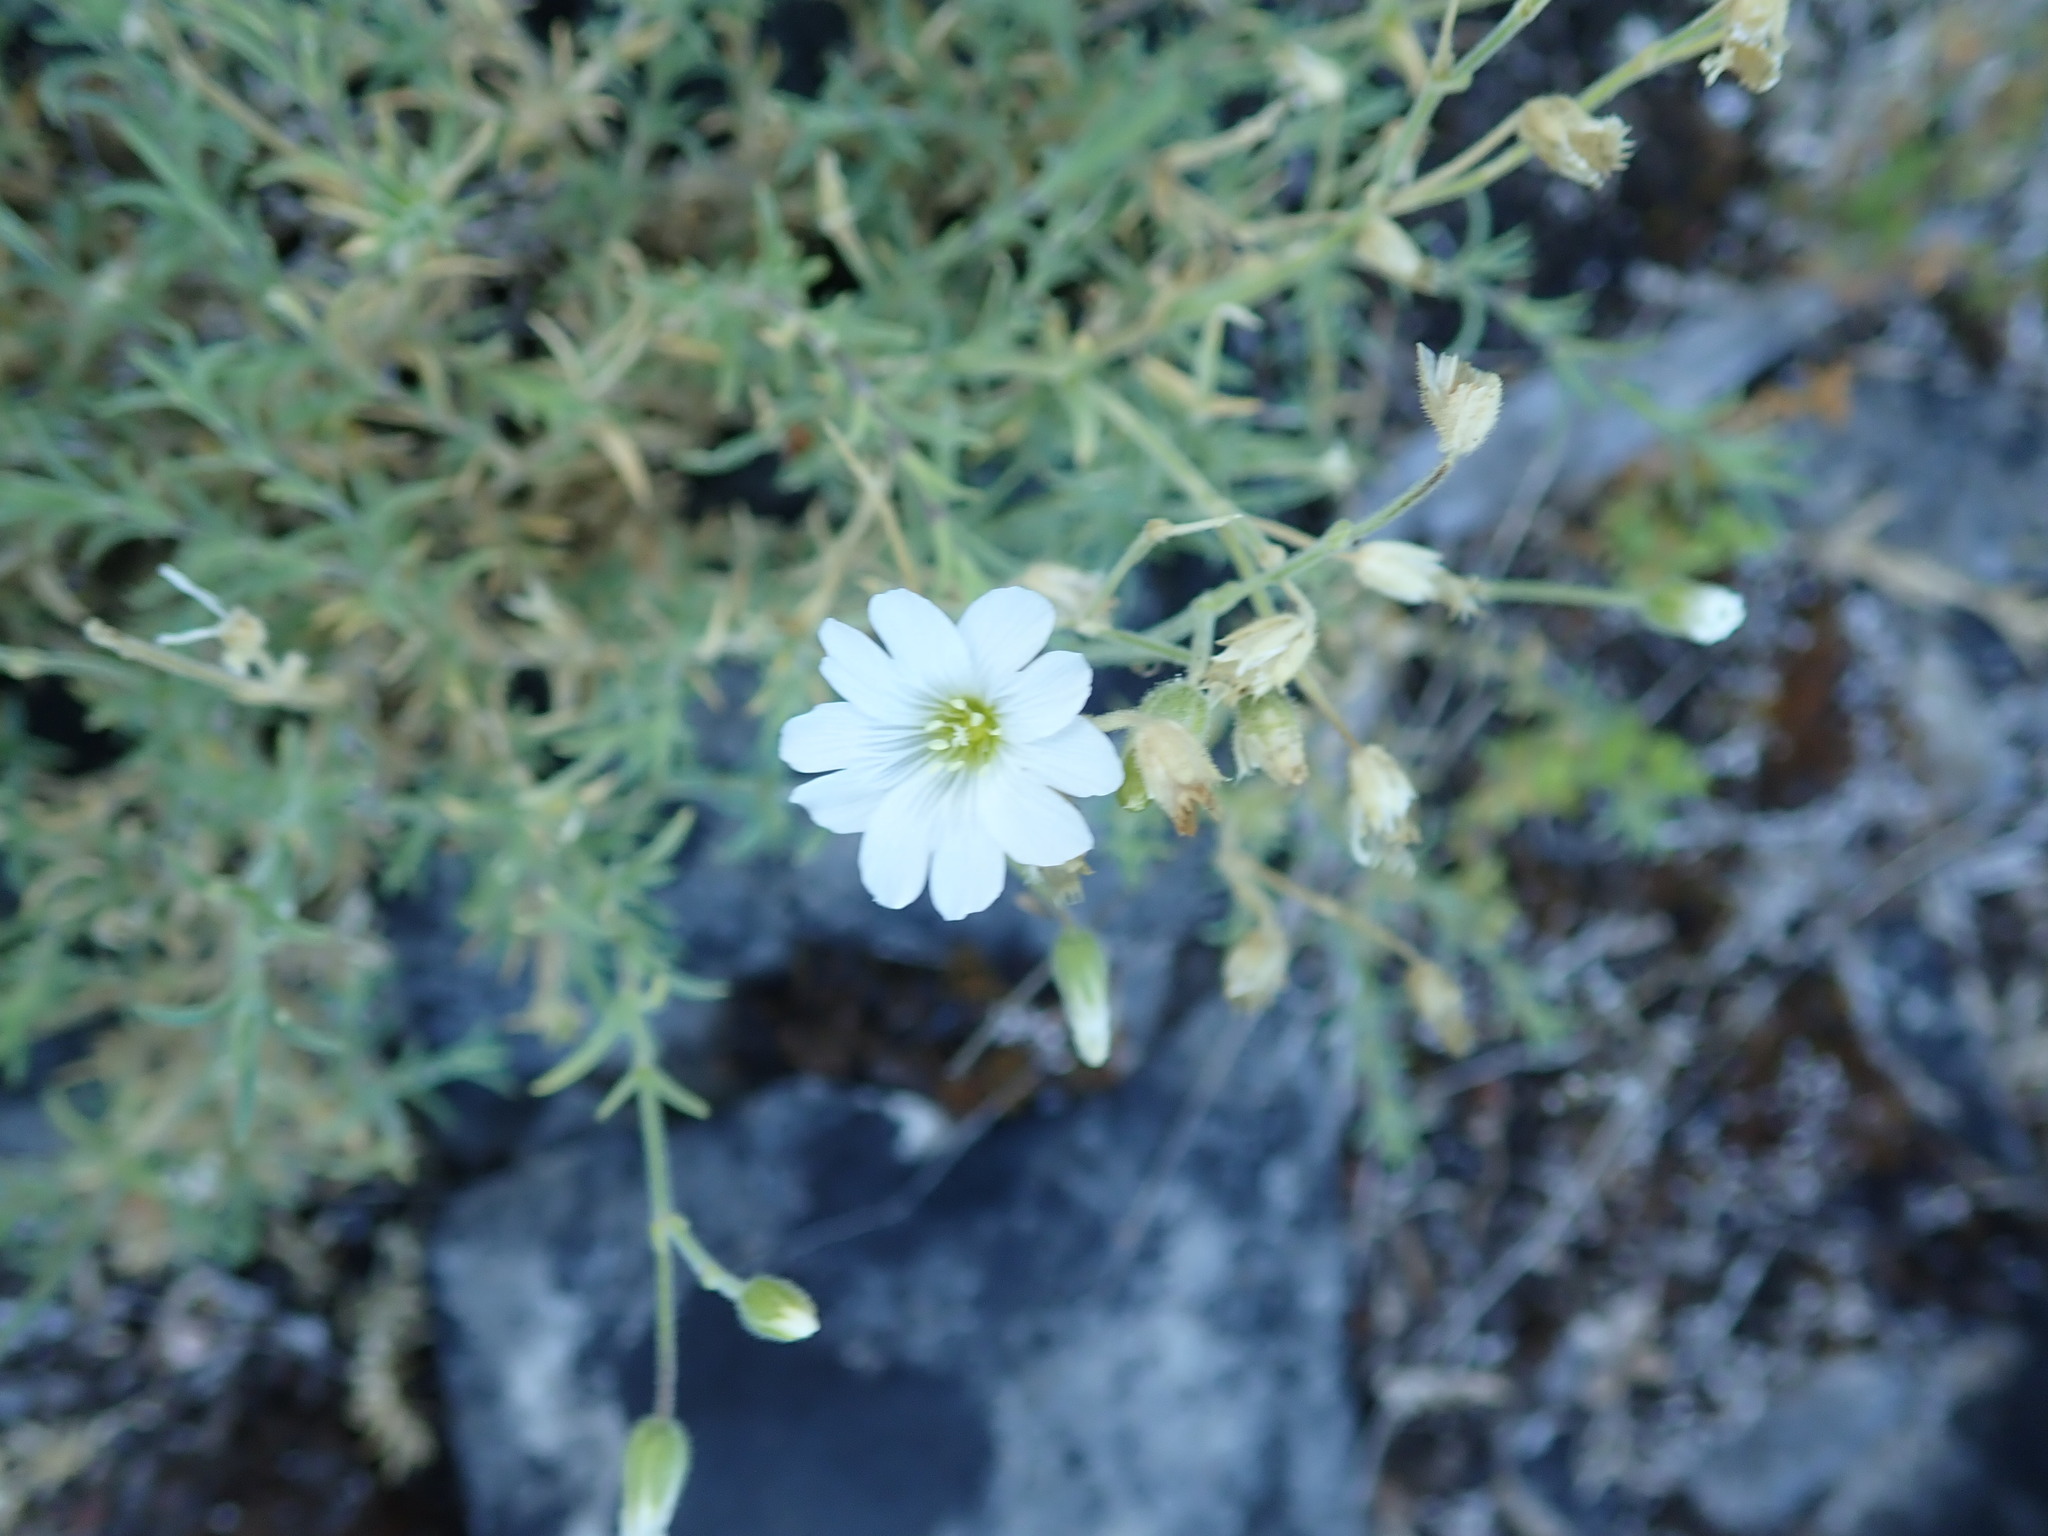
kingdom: Plantae
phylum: Tracheophyta
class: Magnoliopsida
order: Caryophyllales
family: Caryophyllaceae
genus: Cerastium
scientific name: Cerastium arvense
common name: Field mouse-ear
